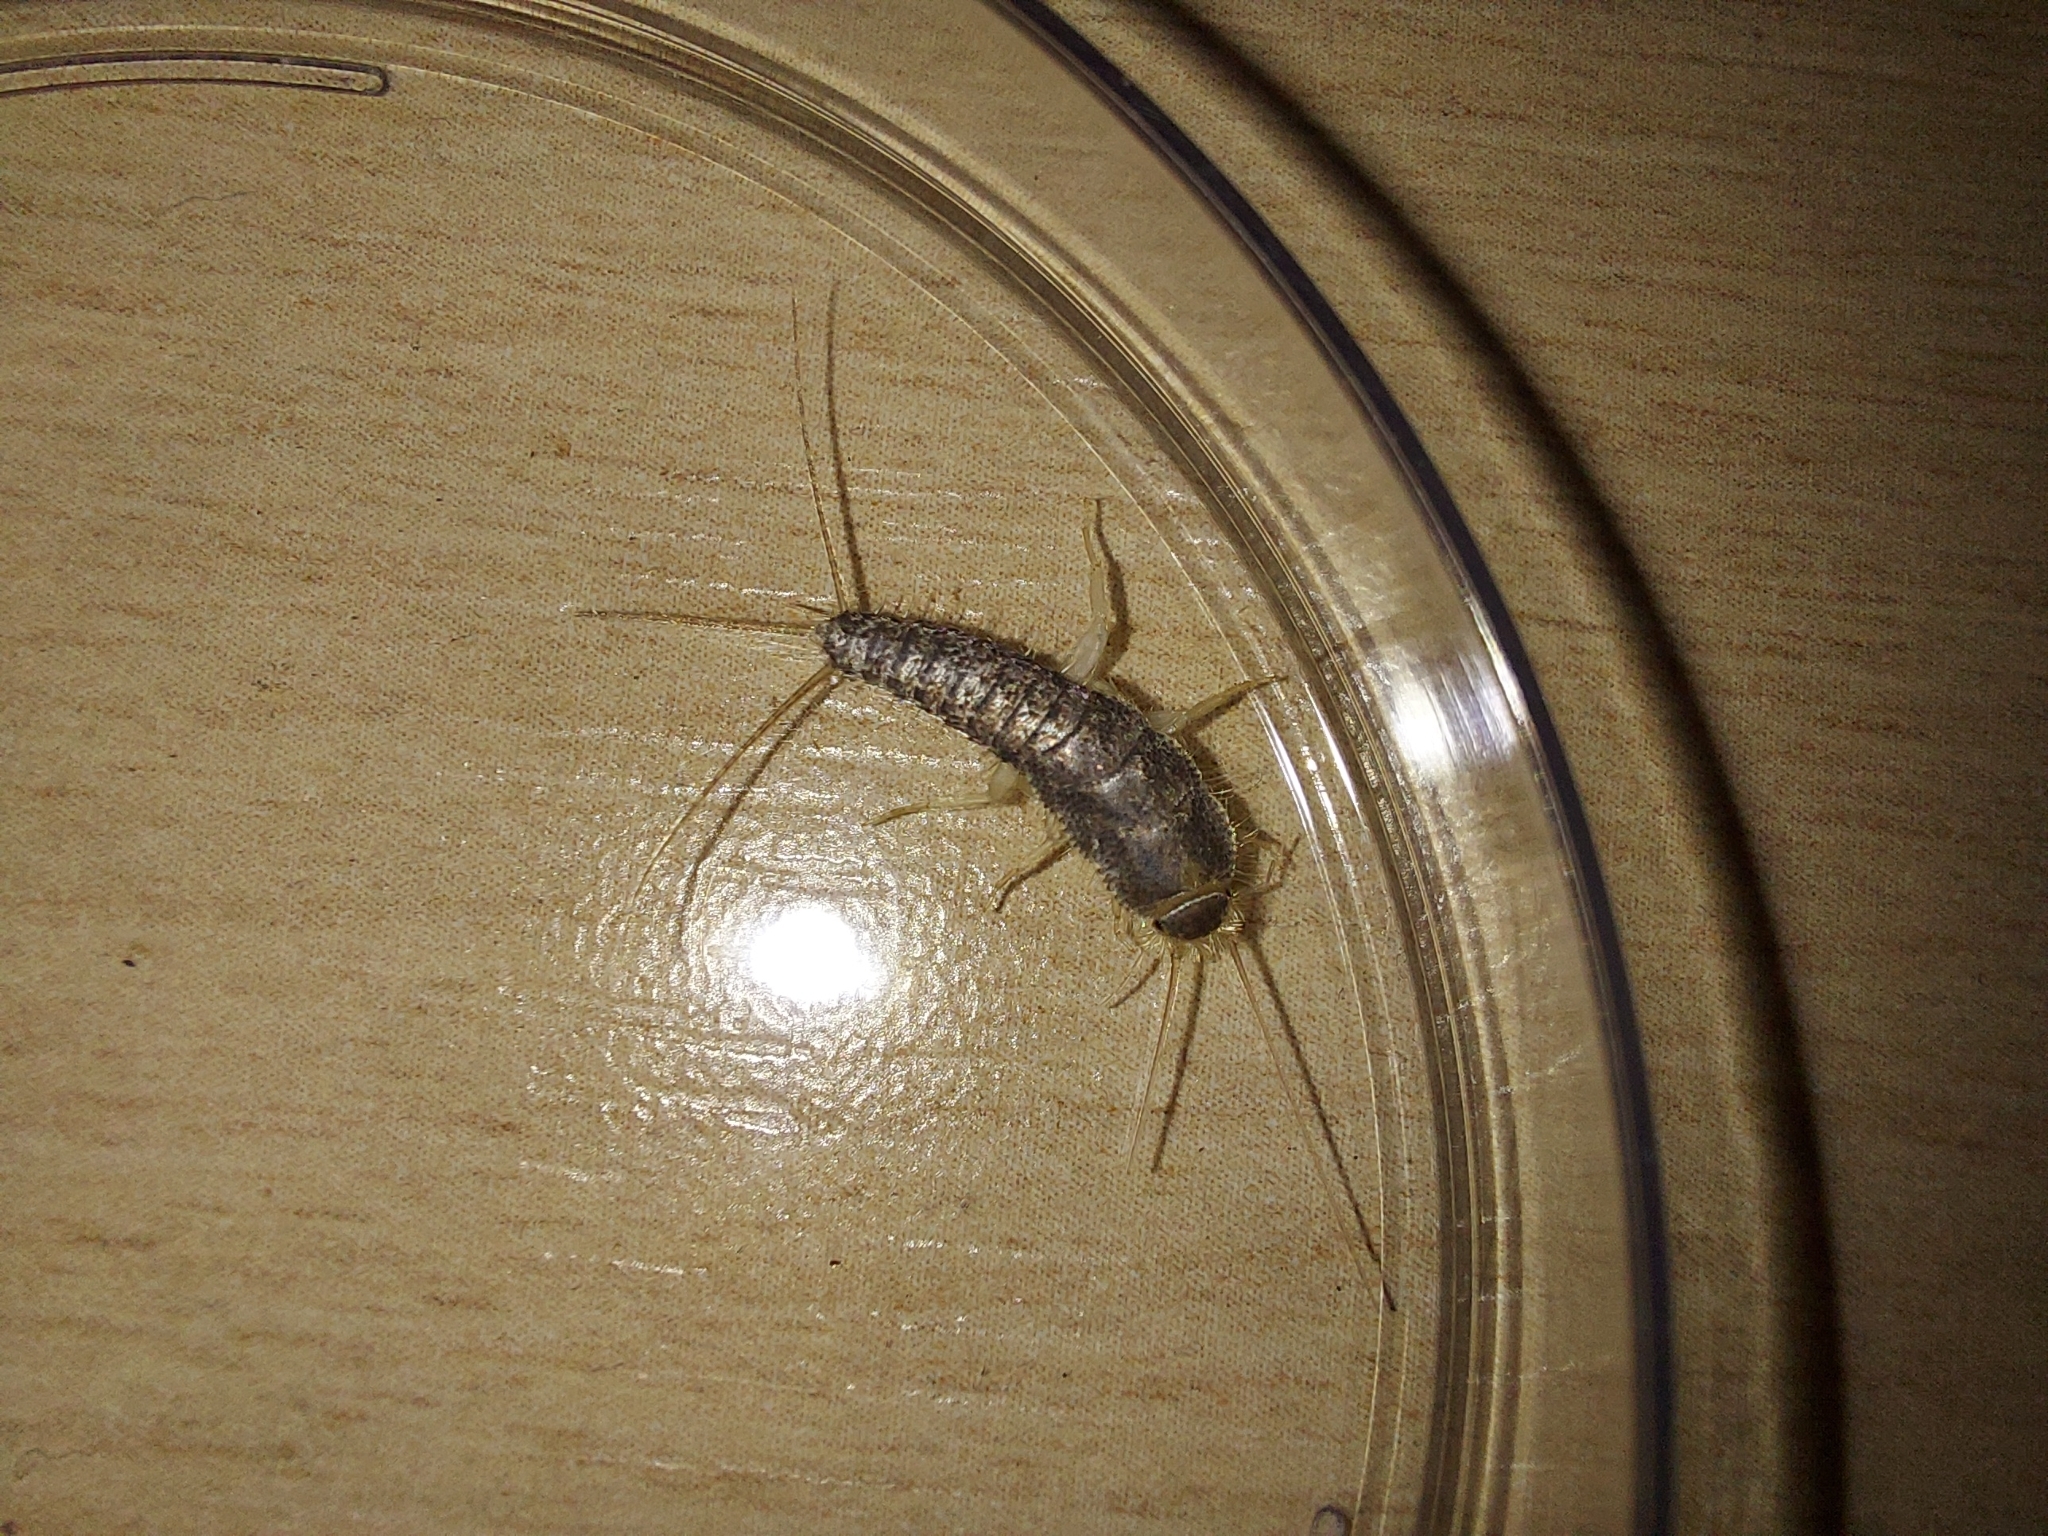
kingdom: Animalia
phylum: Arthropoda
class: Insecta
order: Zygentoma
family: Lepismatidae
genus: Ctenolepisma
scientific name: Ctenolepisma longicaudatum
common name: Silverfish
